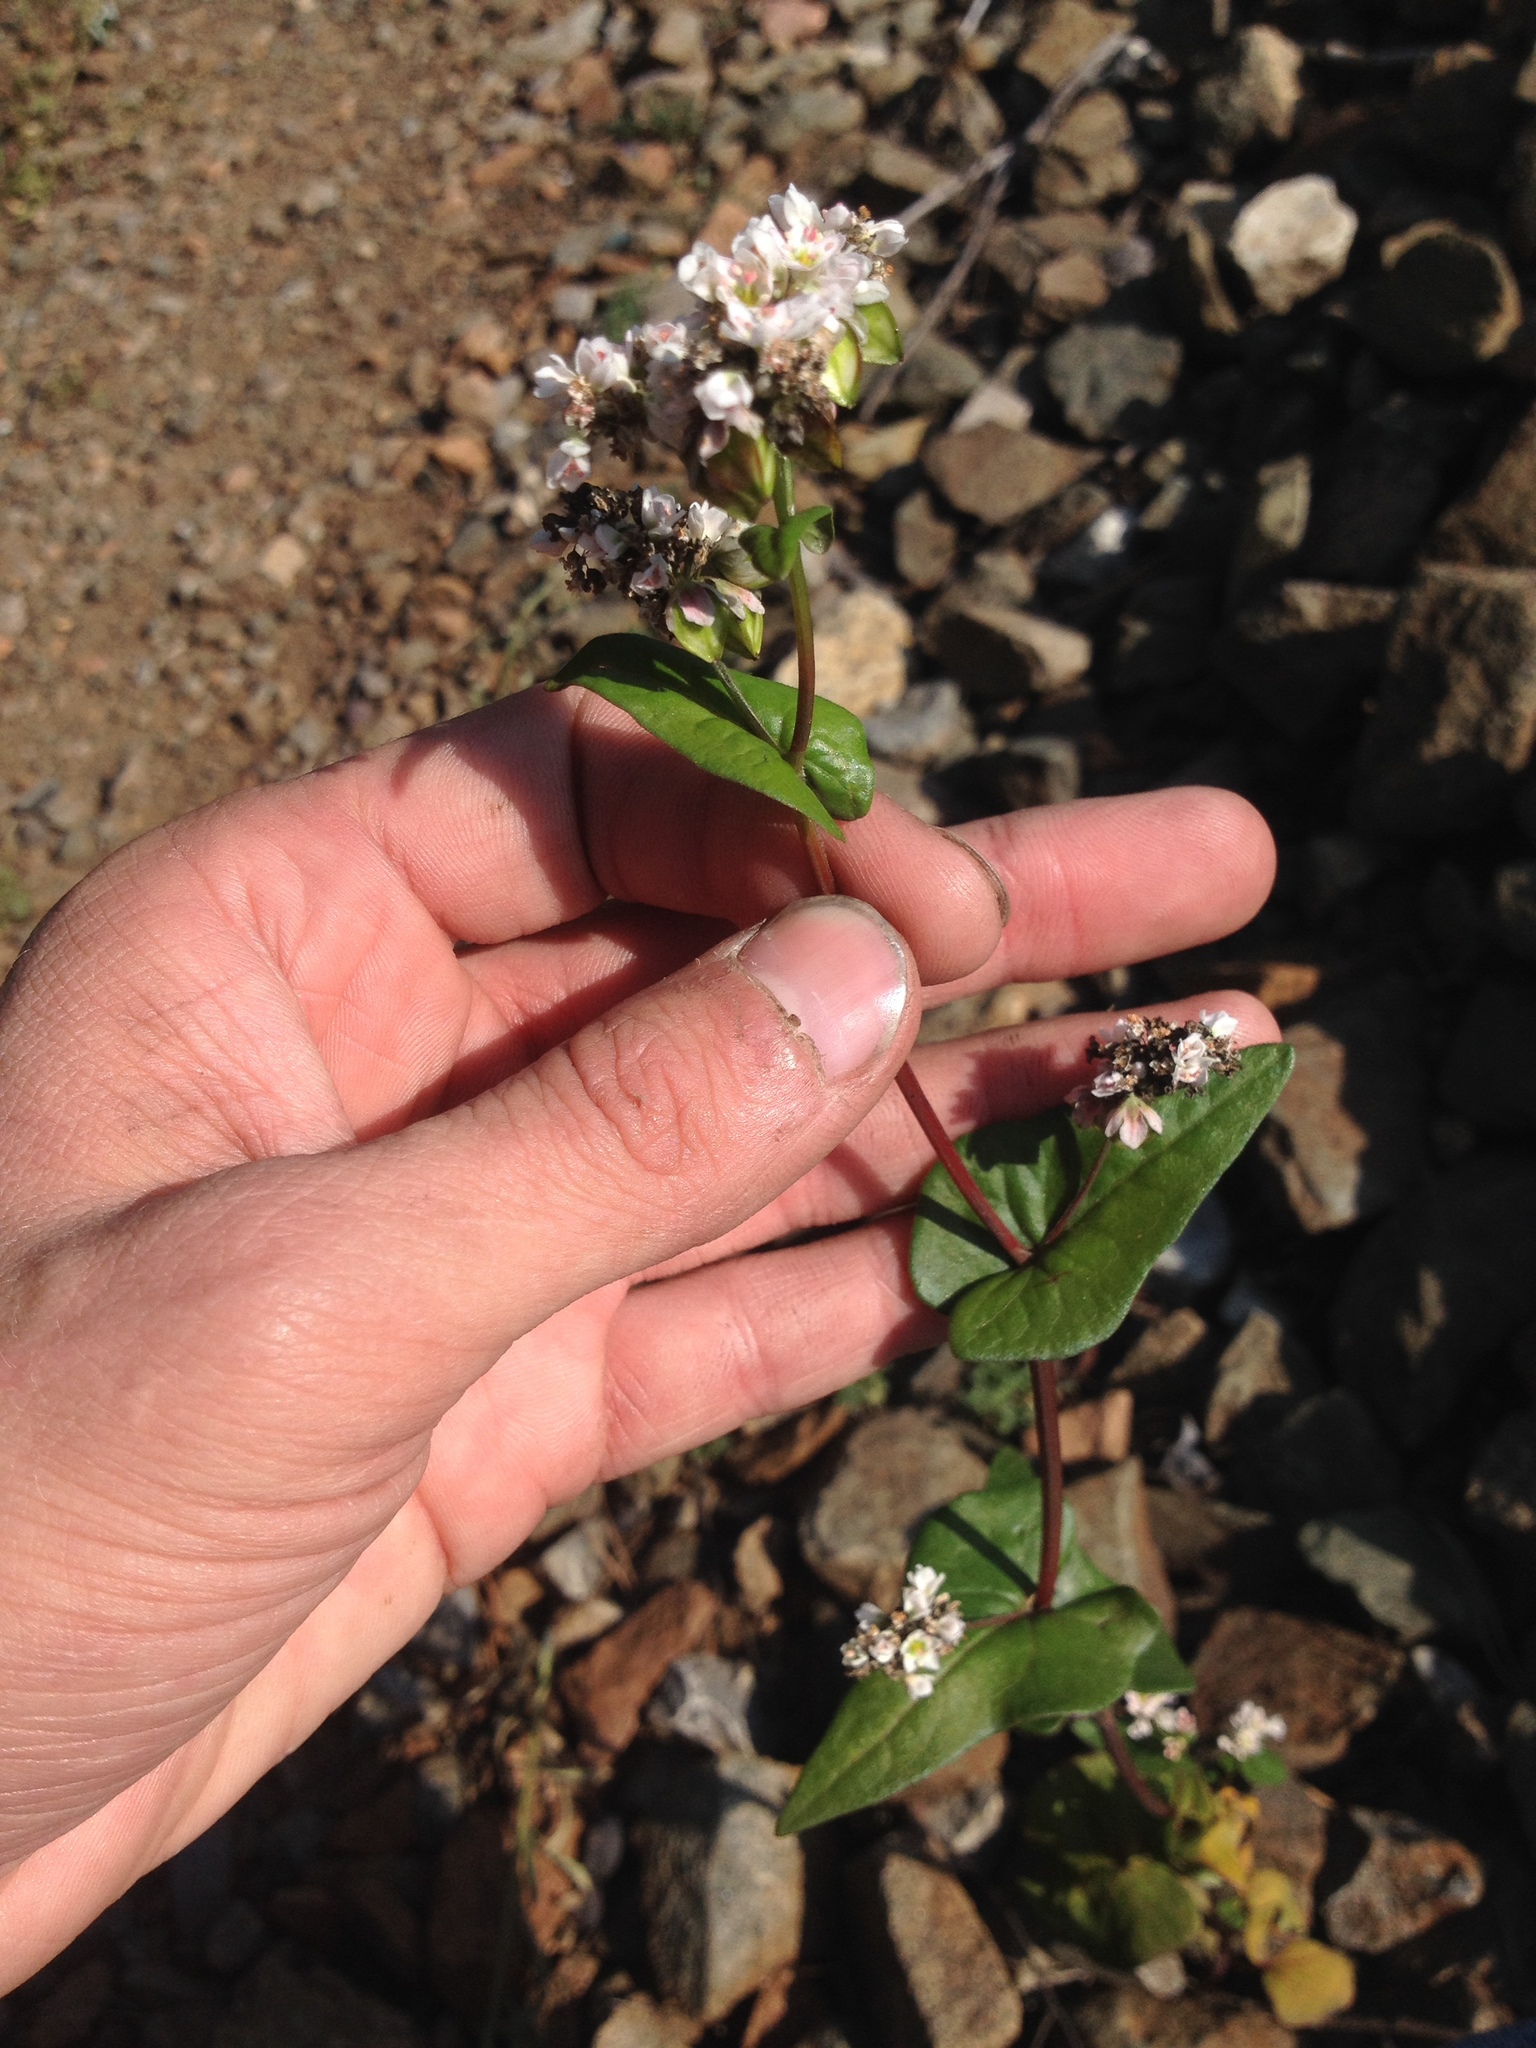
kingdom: Plantae
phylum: Tracheophyta
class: Magnoliopsida
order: Caryophyllales
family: Polygonaceae
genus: Fagopyrum
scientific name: Fagopyrum esculentum
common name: Buckwheat
